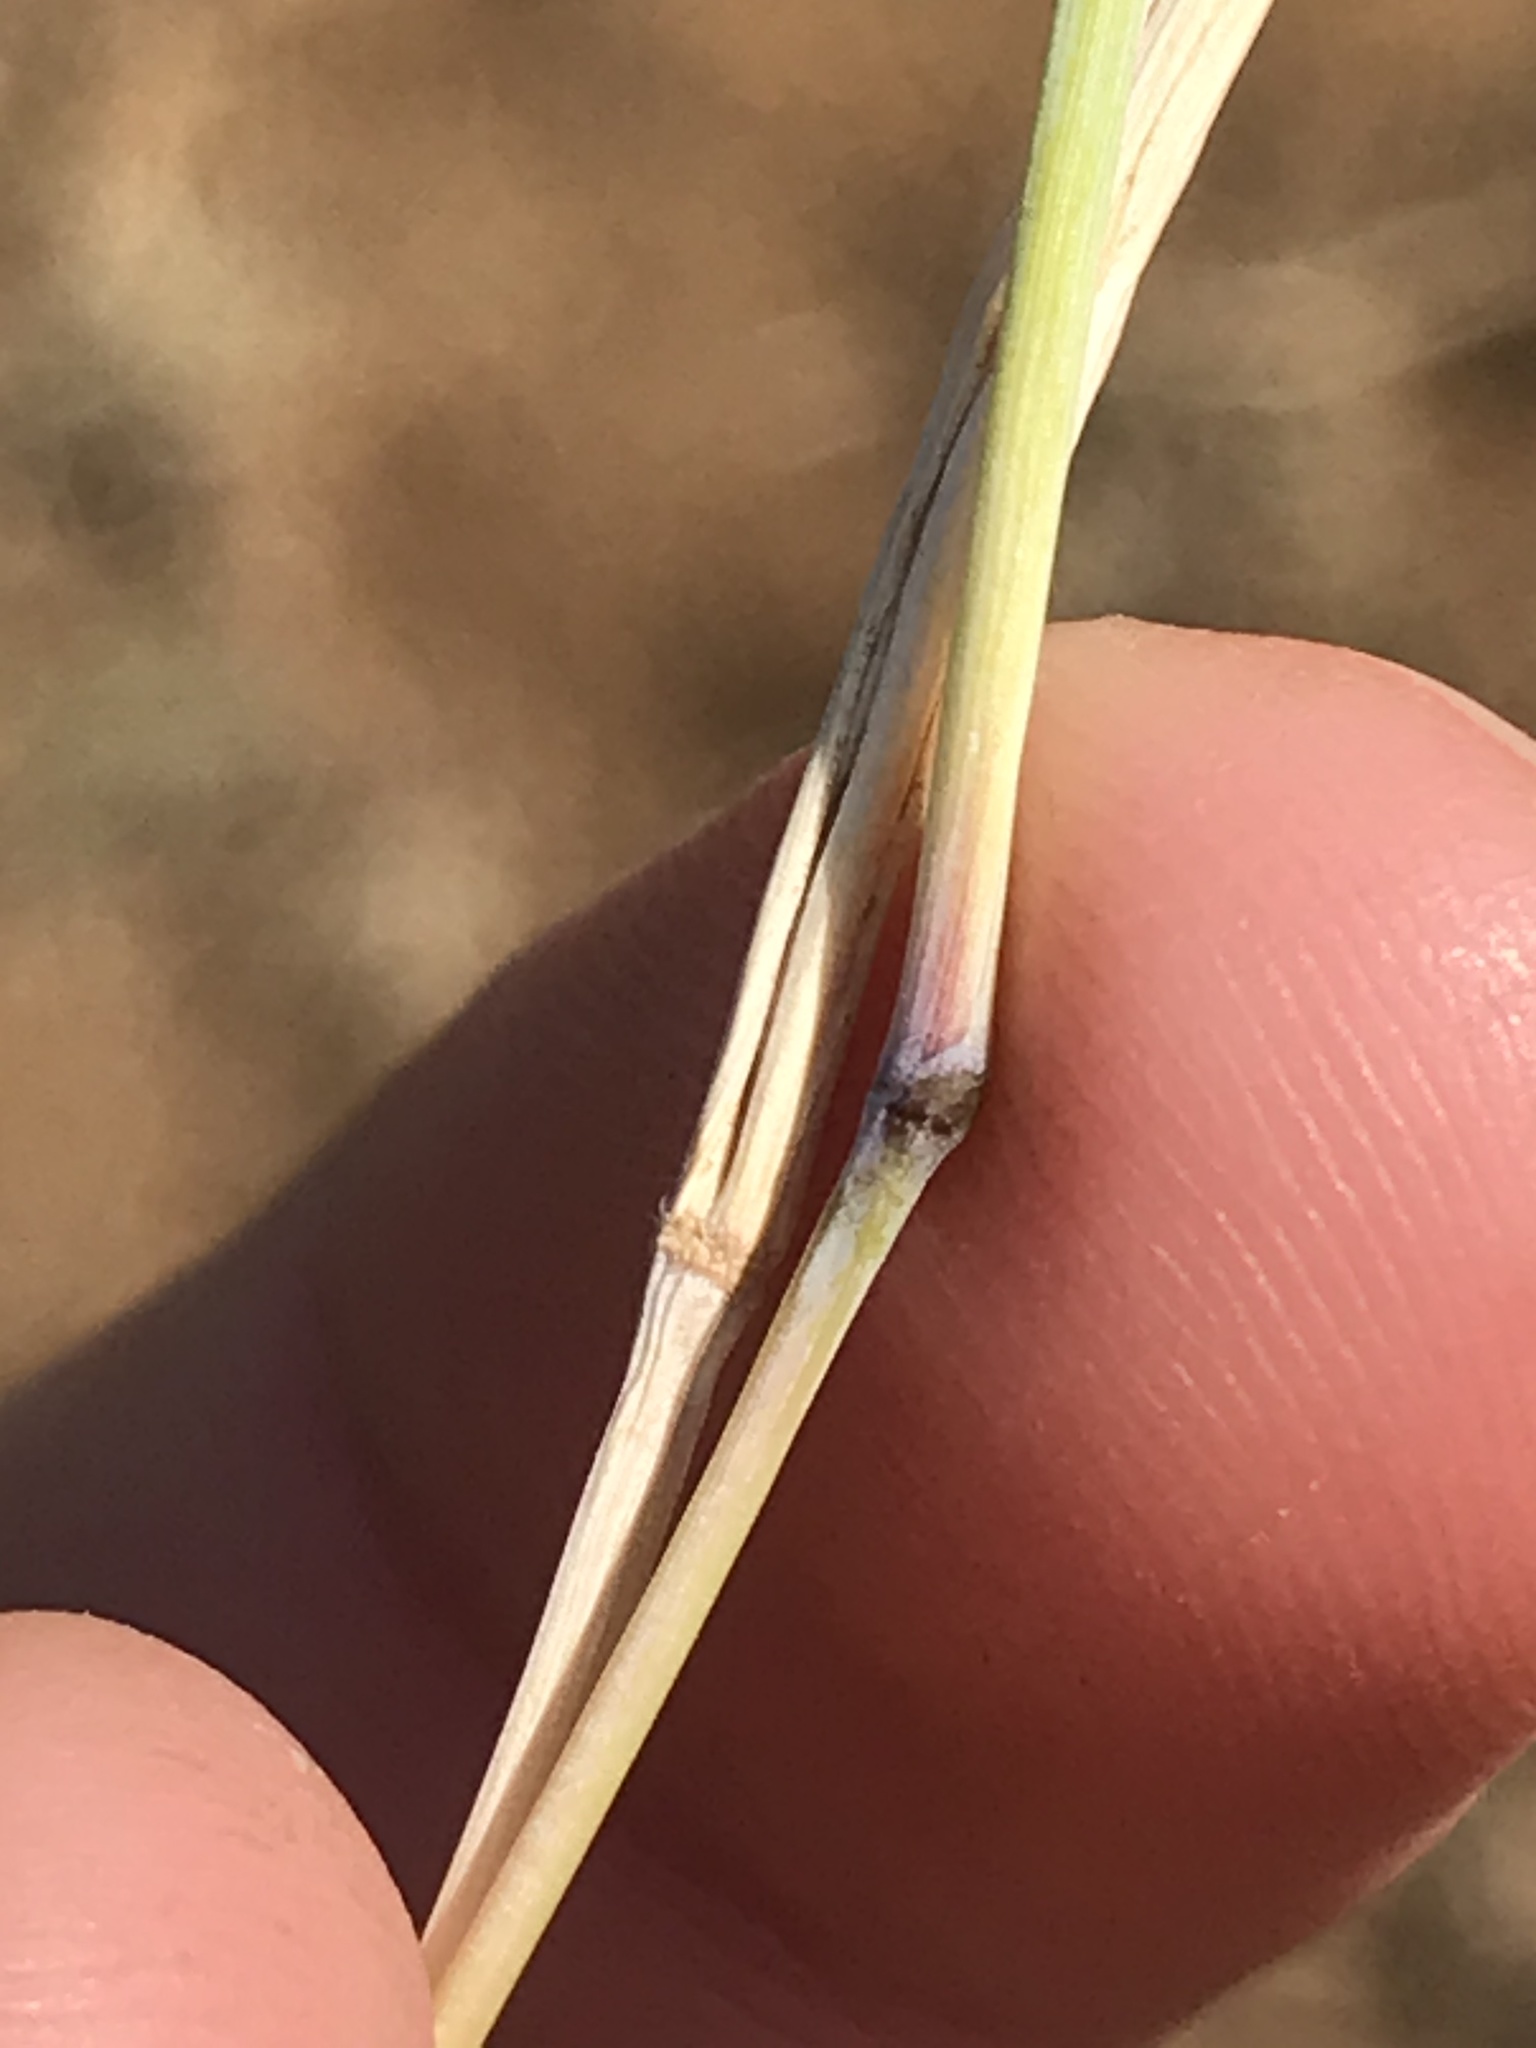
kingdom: Plantae
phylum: Tracheophyta
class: Liliopsida
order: Poales
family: Poaceae
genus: Bothriochloa
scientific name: Bothriochloa torreyana
